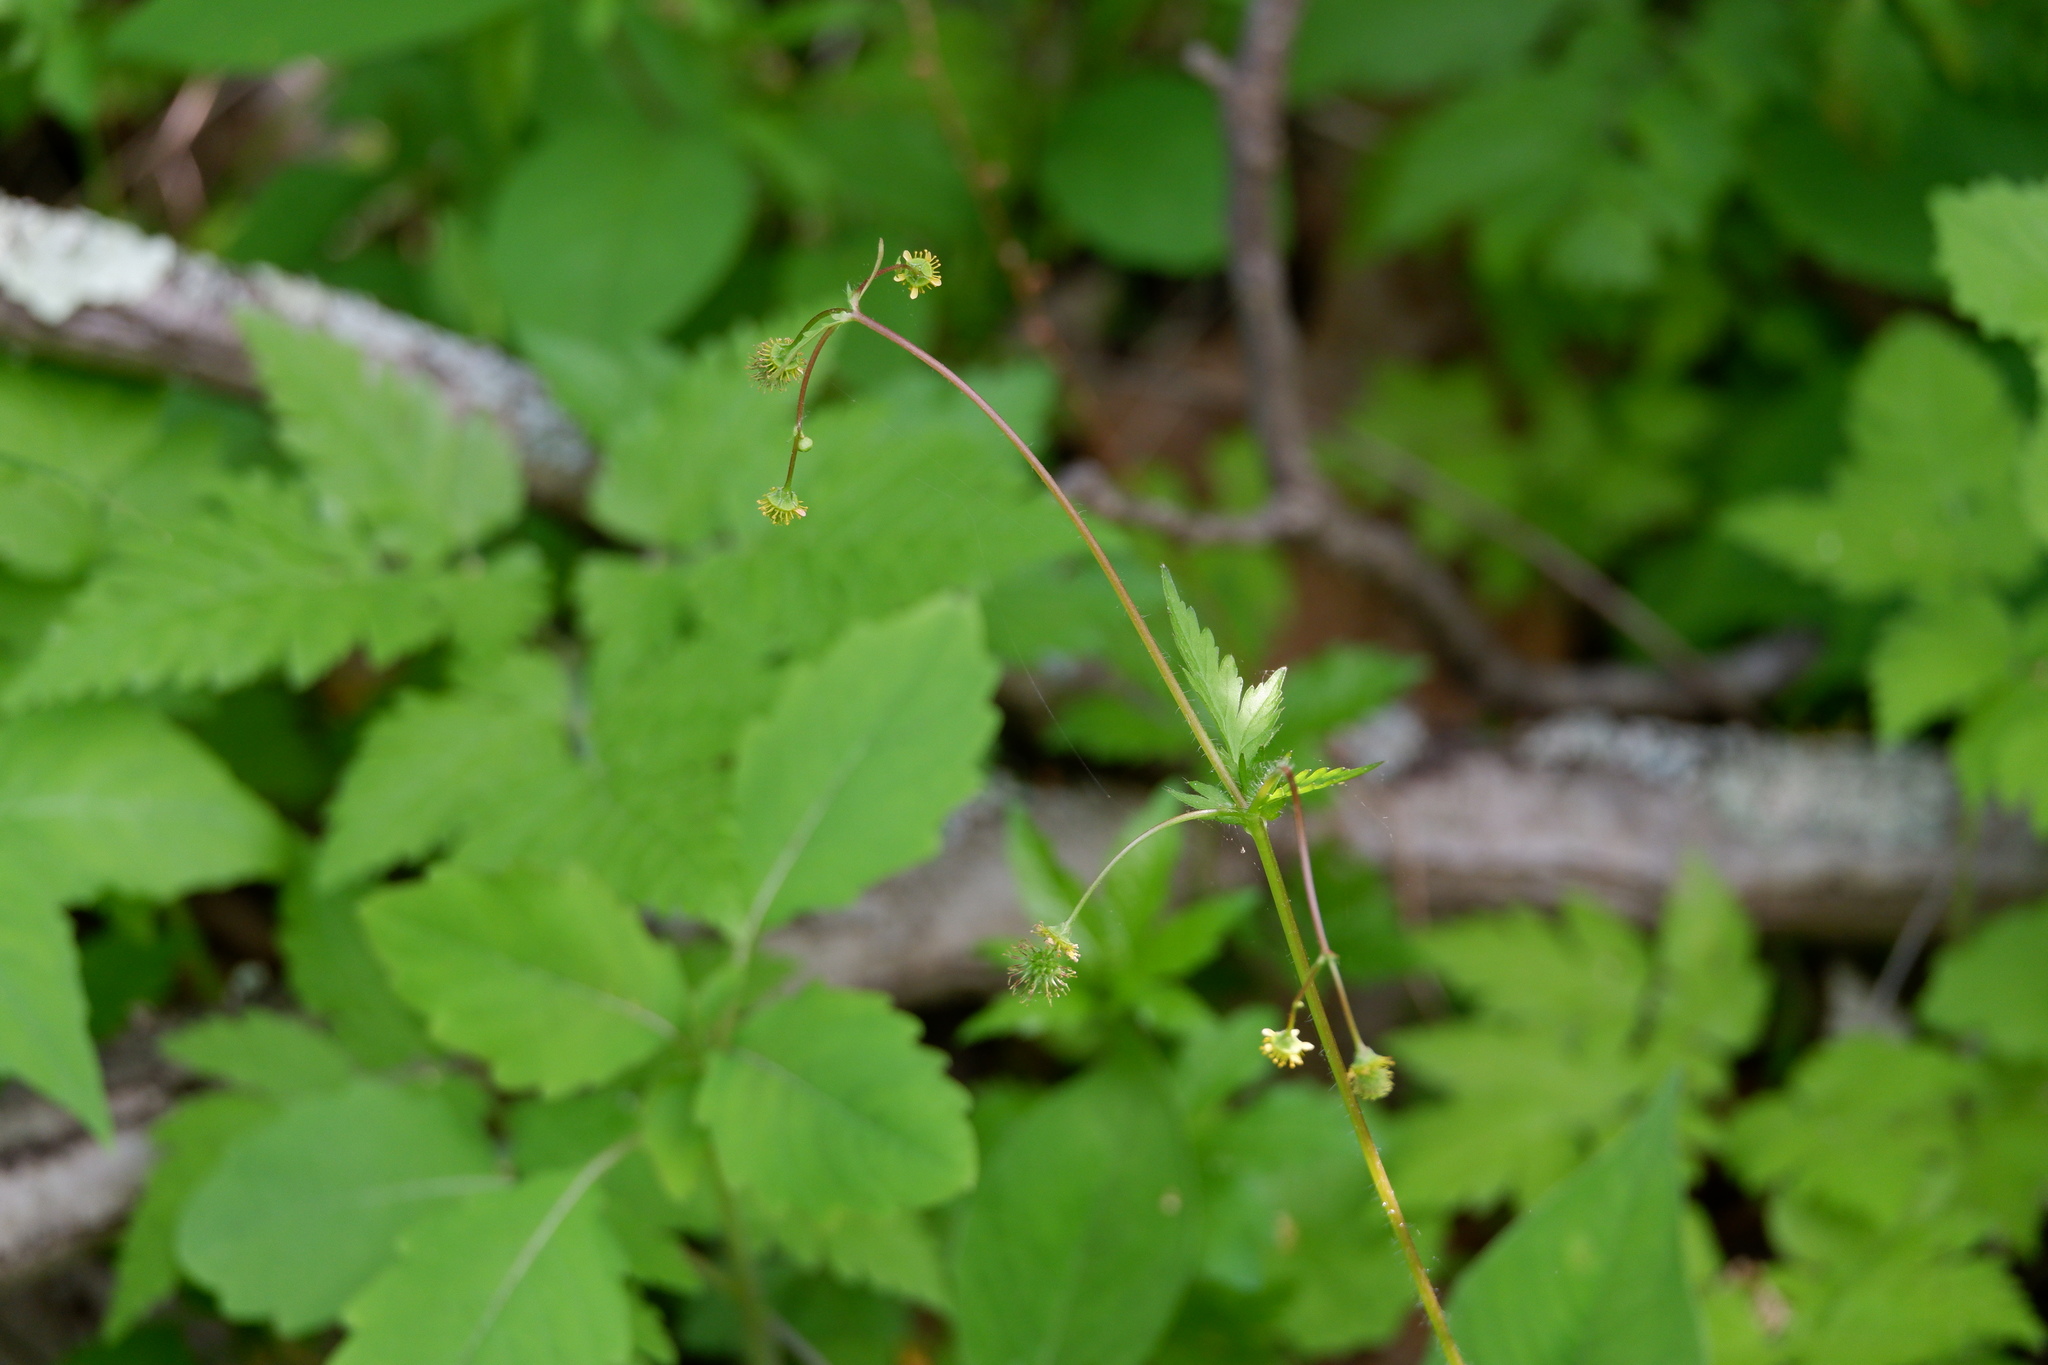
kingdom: Plantae
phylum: Tracheophyta
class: Magnoliopsida
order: Rosales
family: Rosaceae
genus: Geum
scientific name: Geum vernum
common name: Spring avens
